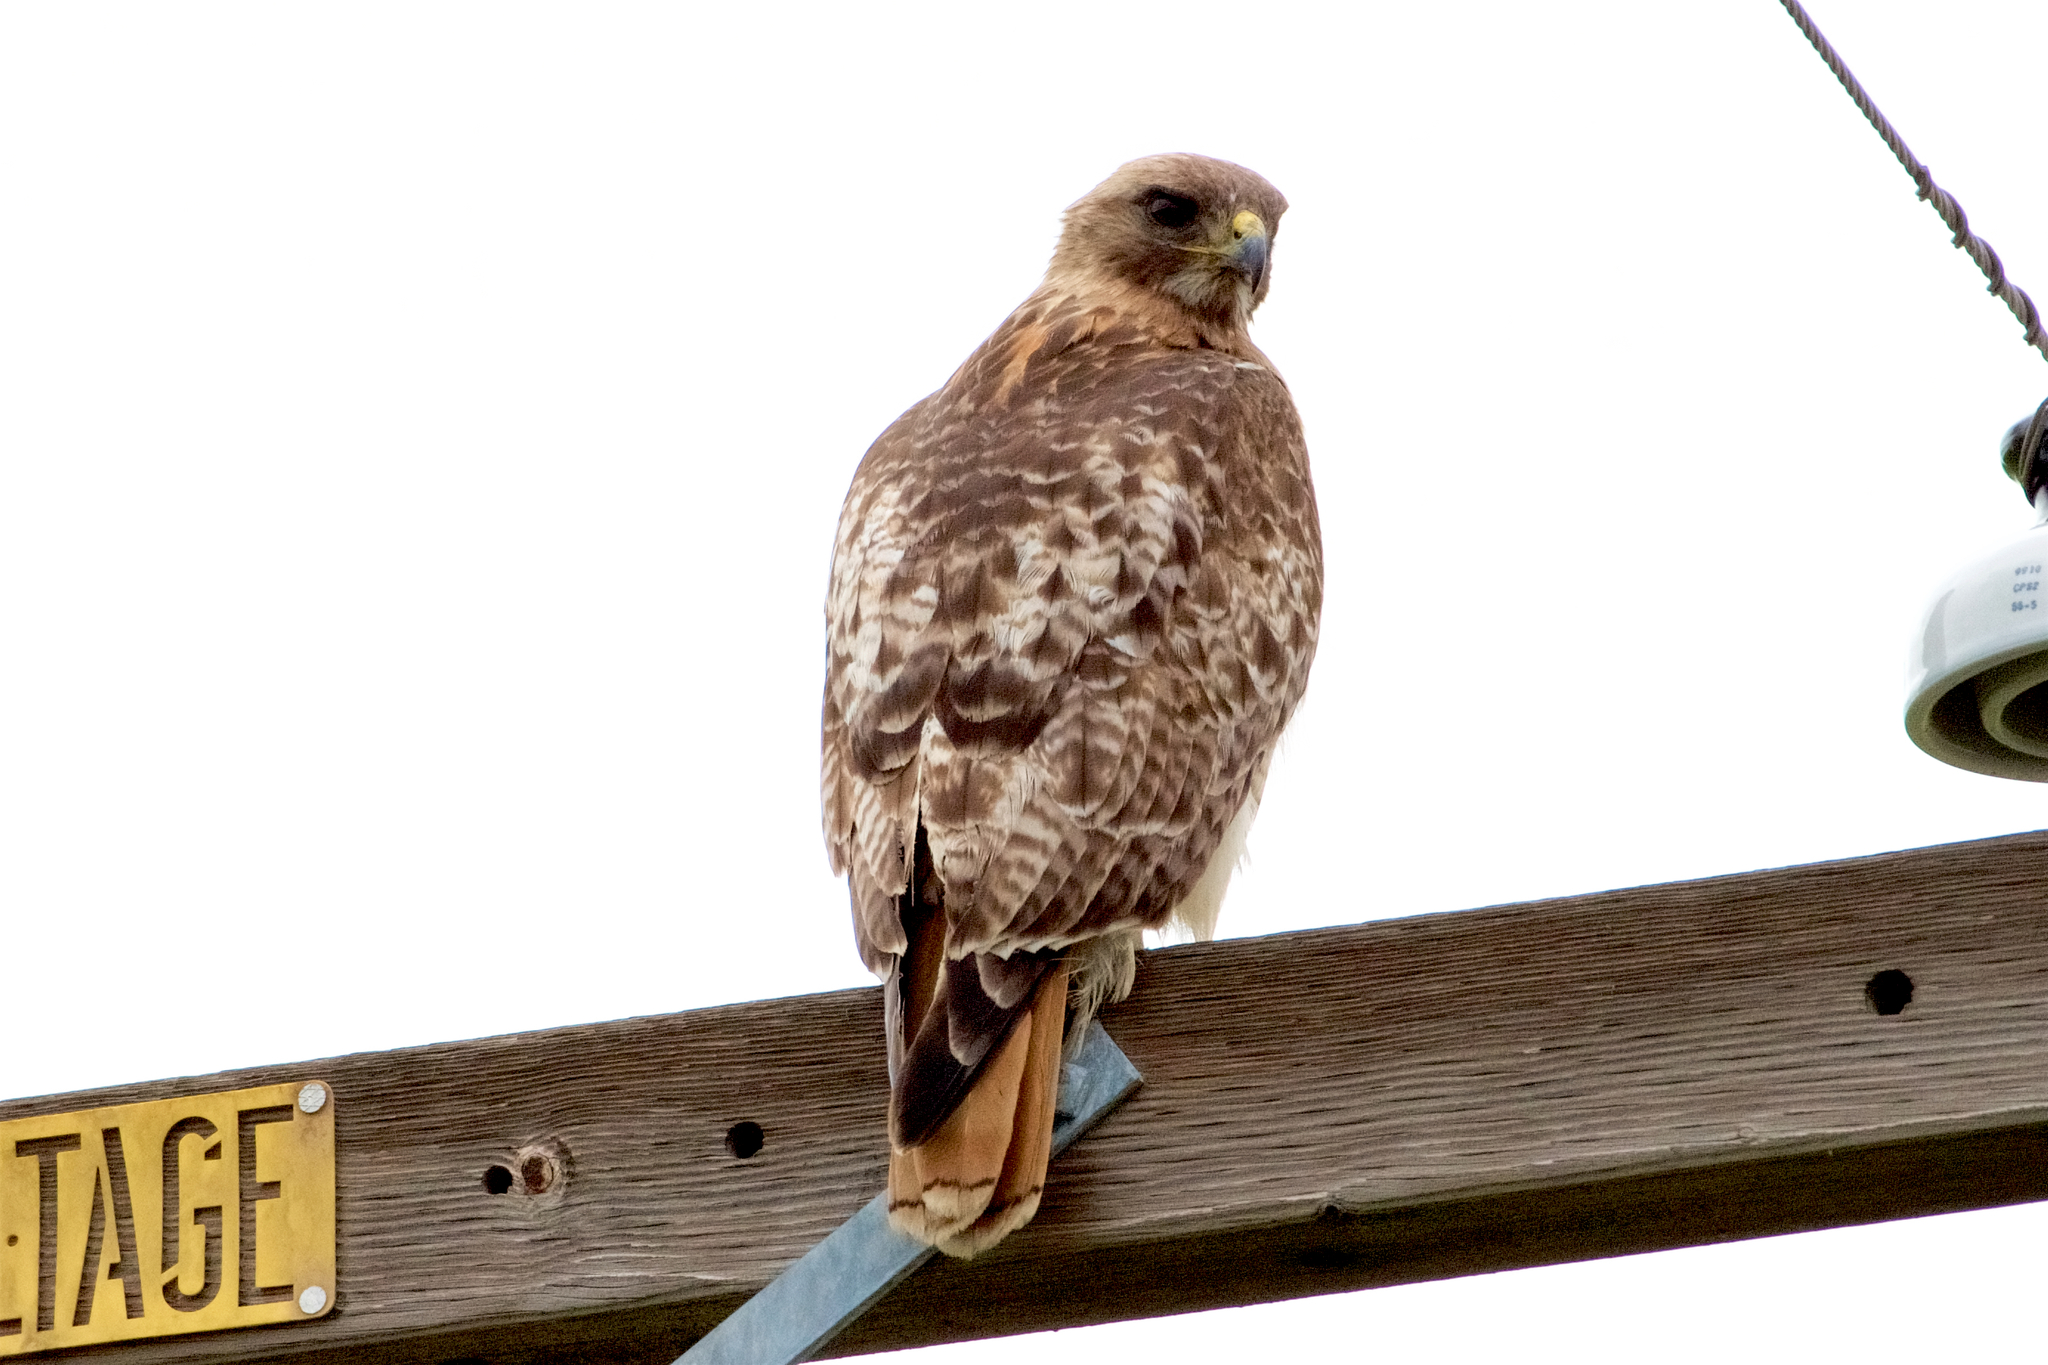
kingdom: Animalia
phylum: Chordata
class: Aves
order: Accipitriformes
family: Accipitridae
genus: Buteo
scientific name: Buteo jamaicensis
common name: Red-tailed hawk
